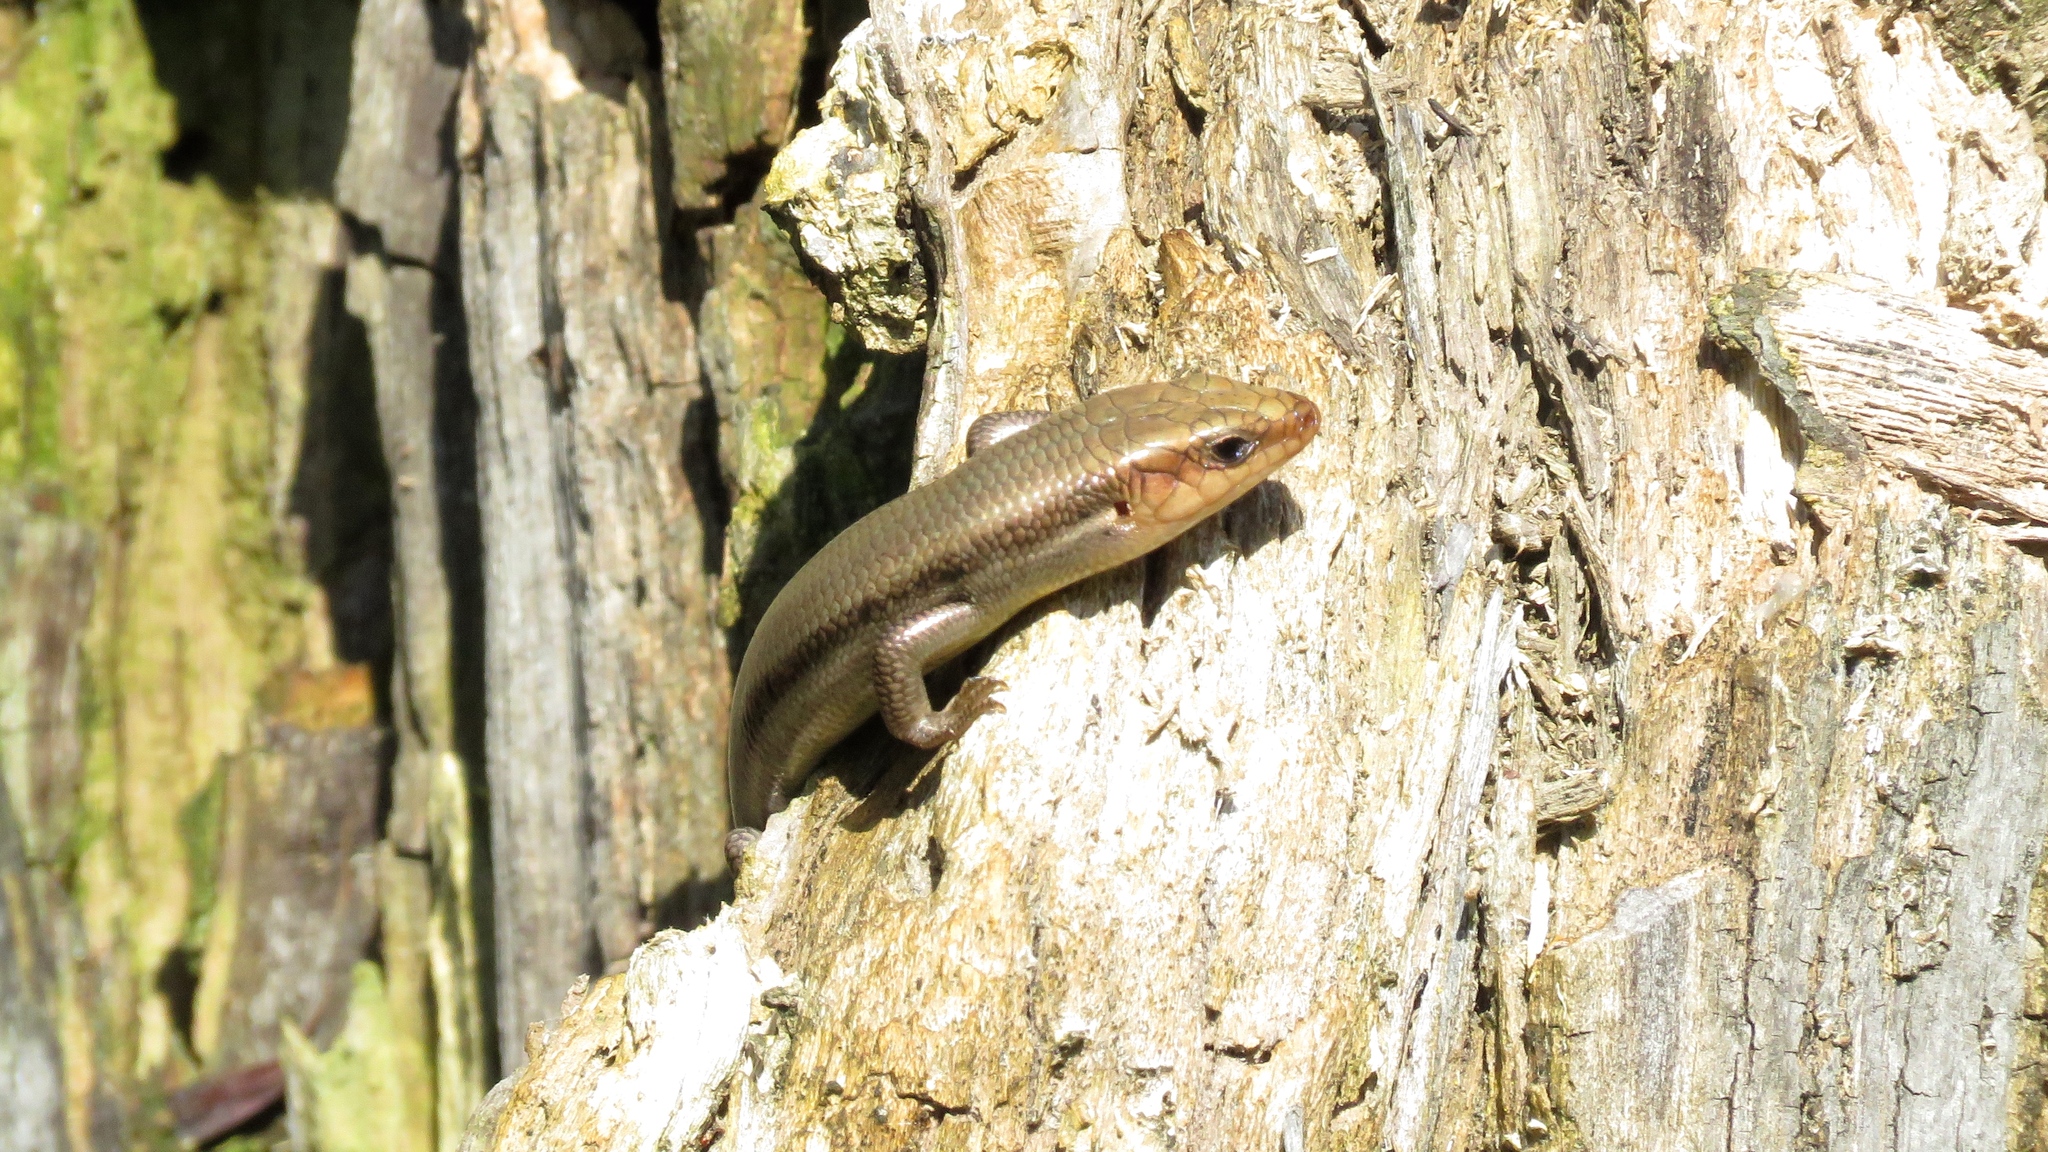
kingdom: Animalia
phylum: Chordata
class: Squamata
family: Scincidae
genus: Plestiodon
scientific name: Plestiodon fasciatus
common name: Five-lined skink
